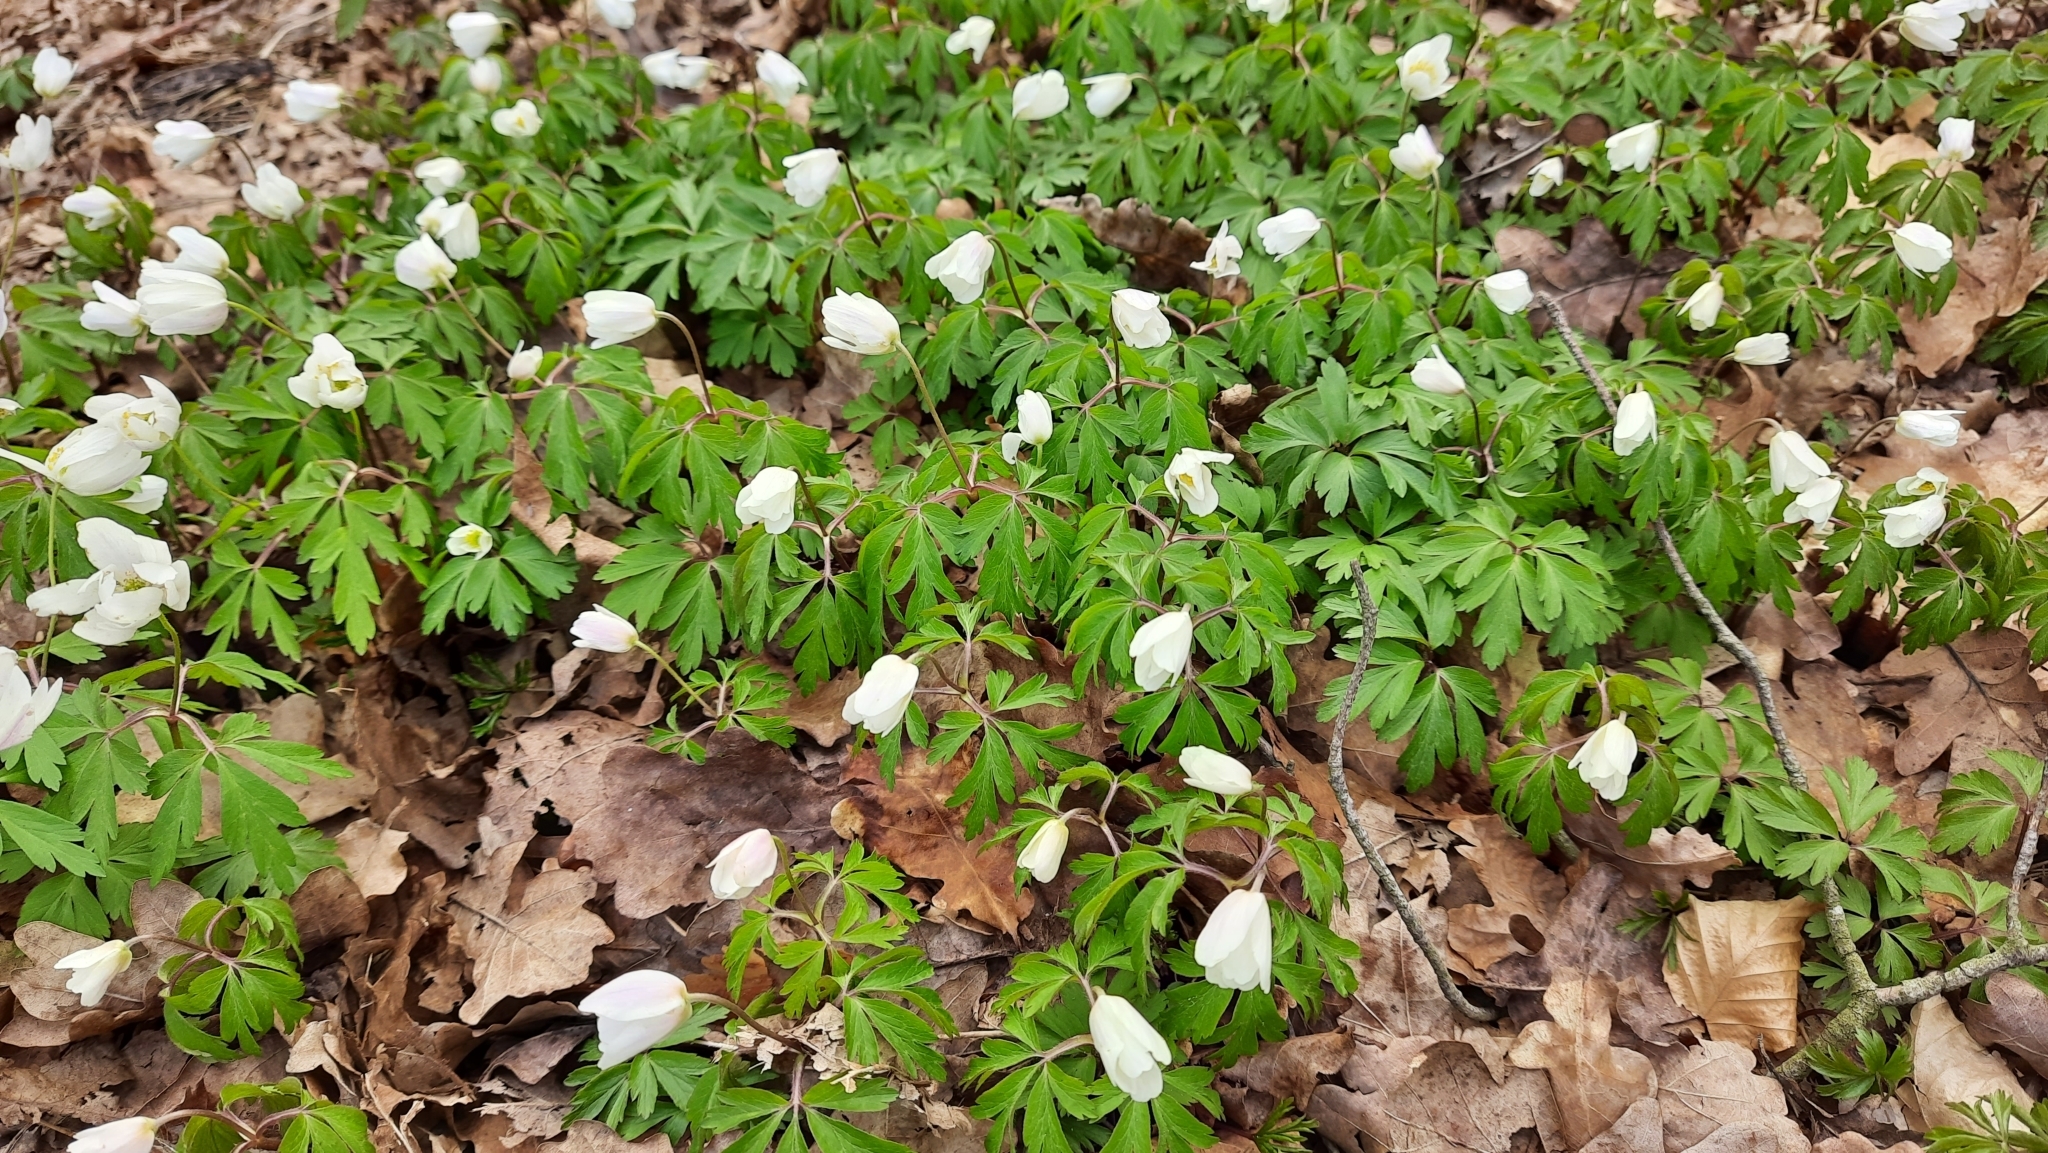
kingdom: Plantae
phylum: Tracheophyta
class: Magnoliopsida
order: Ranunculales
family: Ranunculaceae
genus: Anemone
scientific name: Anemone nemorosa
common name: Wood anemone
